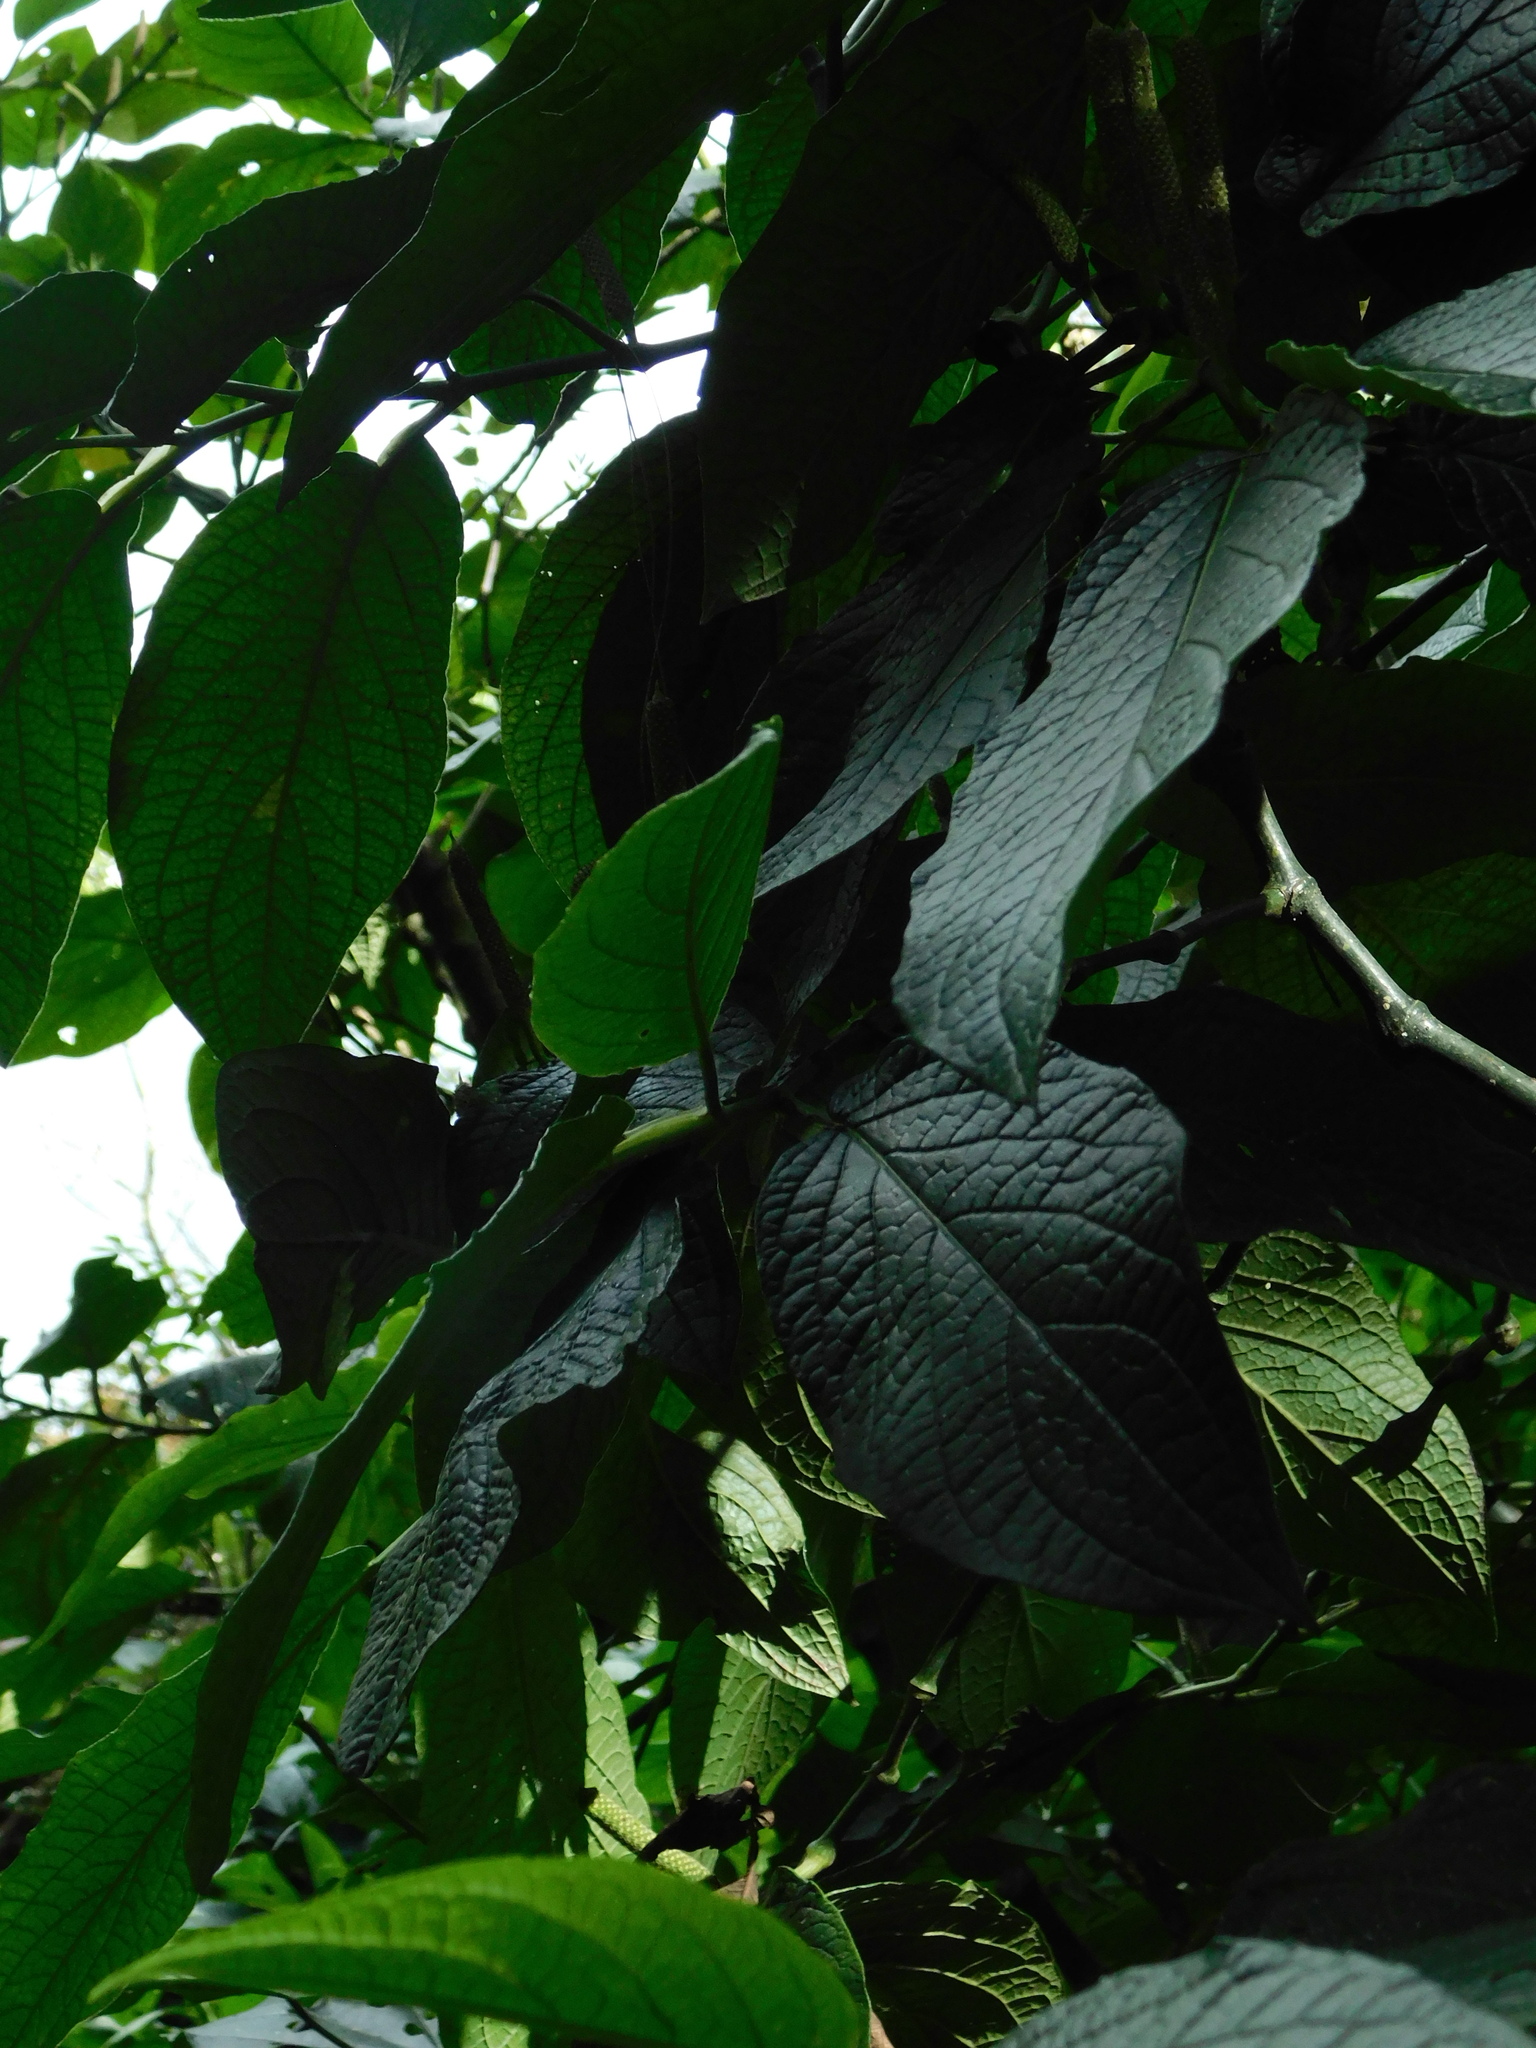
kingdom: Plantae
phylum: Tracheophyta
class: Magnoliopsida
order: Piperales
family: Piperaceae
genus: Piper
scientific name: Piper lapathifolium
